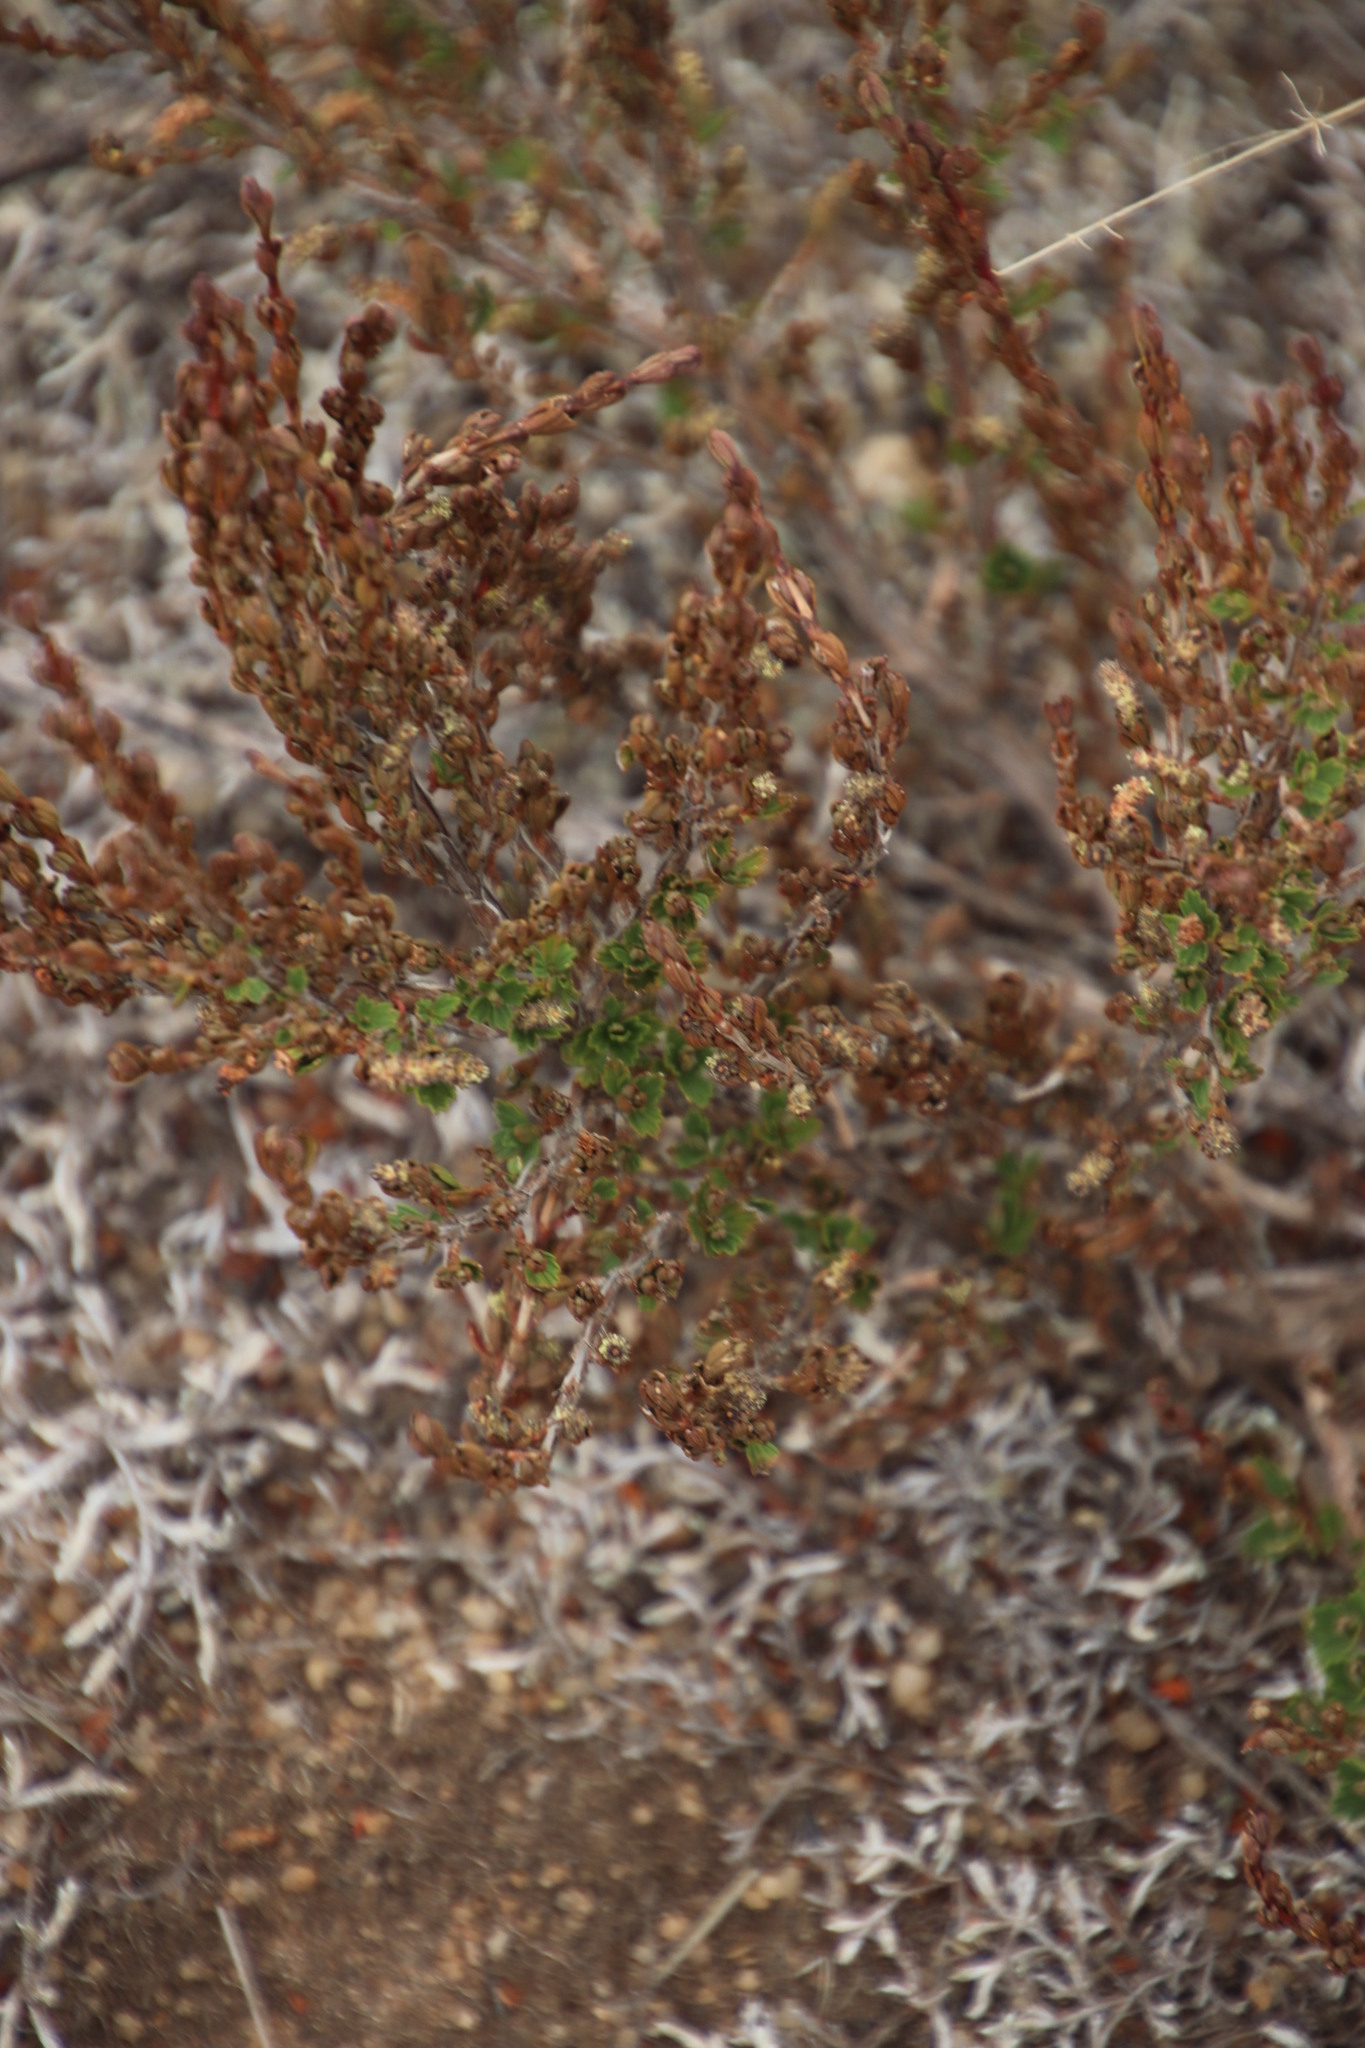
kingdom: Plantae
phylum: Tracheophyta
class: Magnoliopsida
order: Gunnerales
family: Myrothamnaceae
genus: Myrothamnus
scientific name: Myrothamnus flabellifolius
